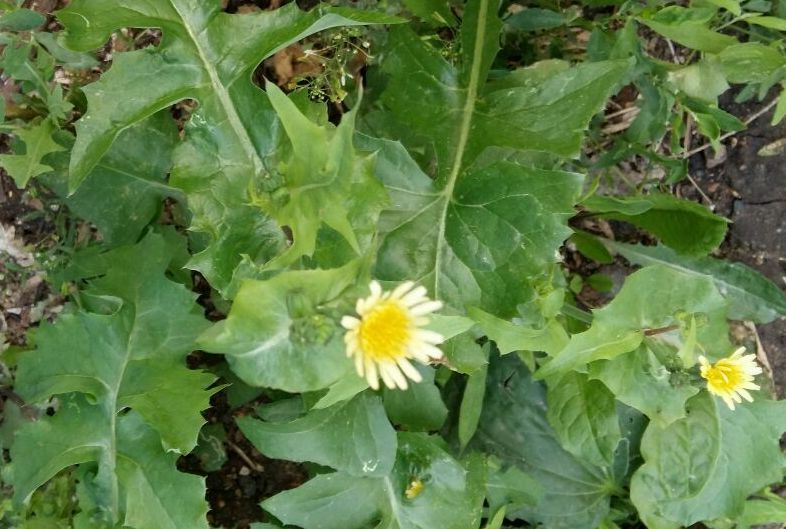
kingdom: Plantae
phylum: Tracheophyta
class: Magnoliopsida
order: Asterales
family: Asteraceae
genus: Sonchus
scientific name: Sonchus oleraceus
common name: Common sowthistle
